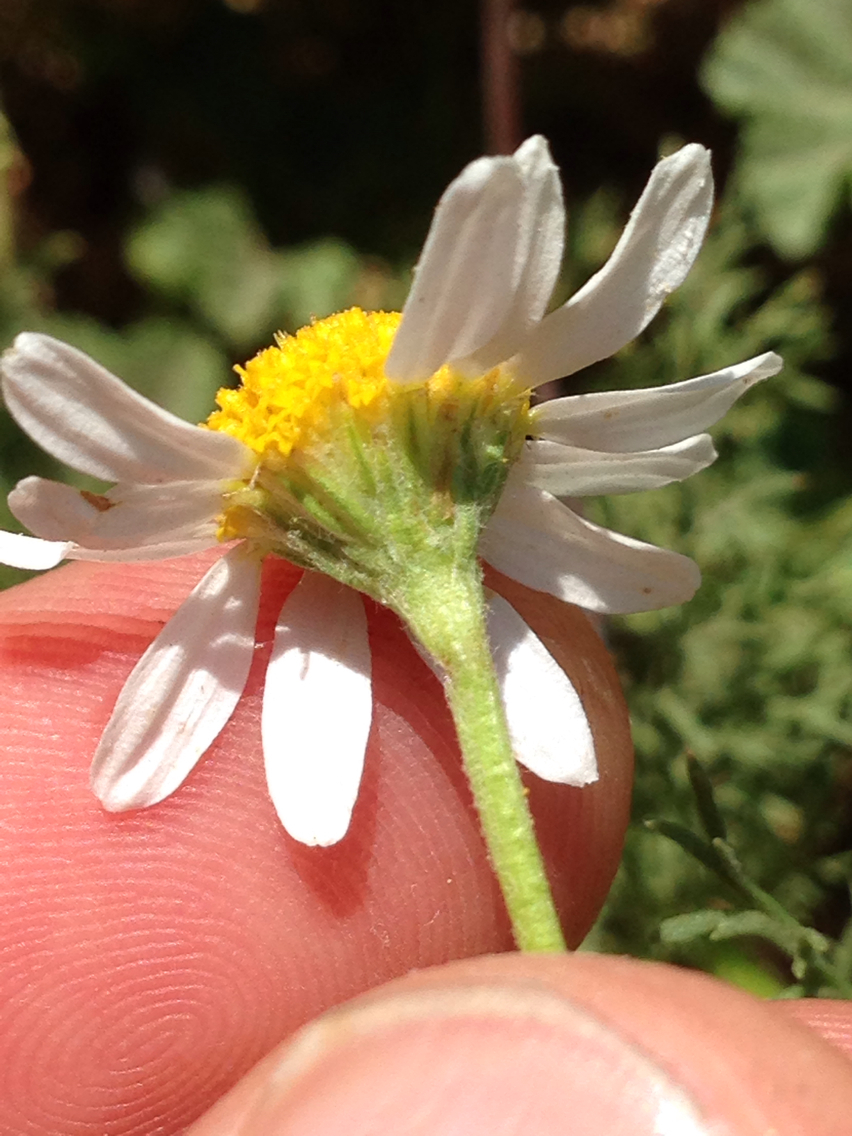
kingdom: Plantae
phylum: Tracheophyta
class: Magnoliopsida
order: Asterales
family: Asteraceae
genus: Anthemis
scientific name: Anthemis cotula
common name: Stinking chamomile
